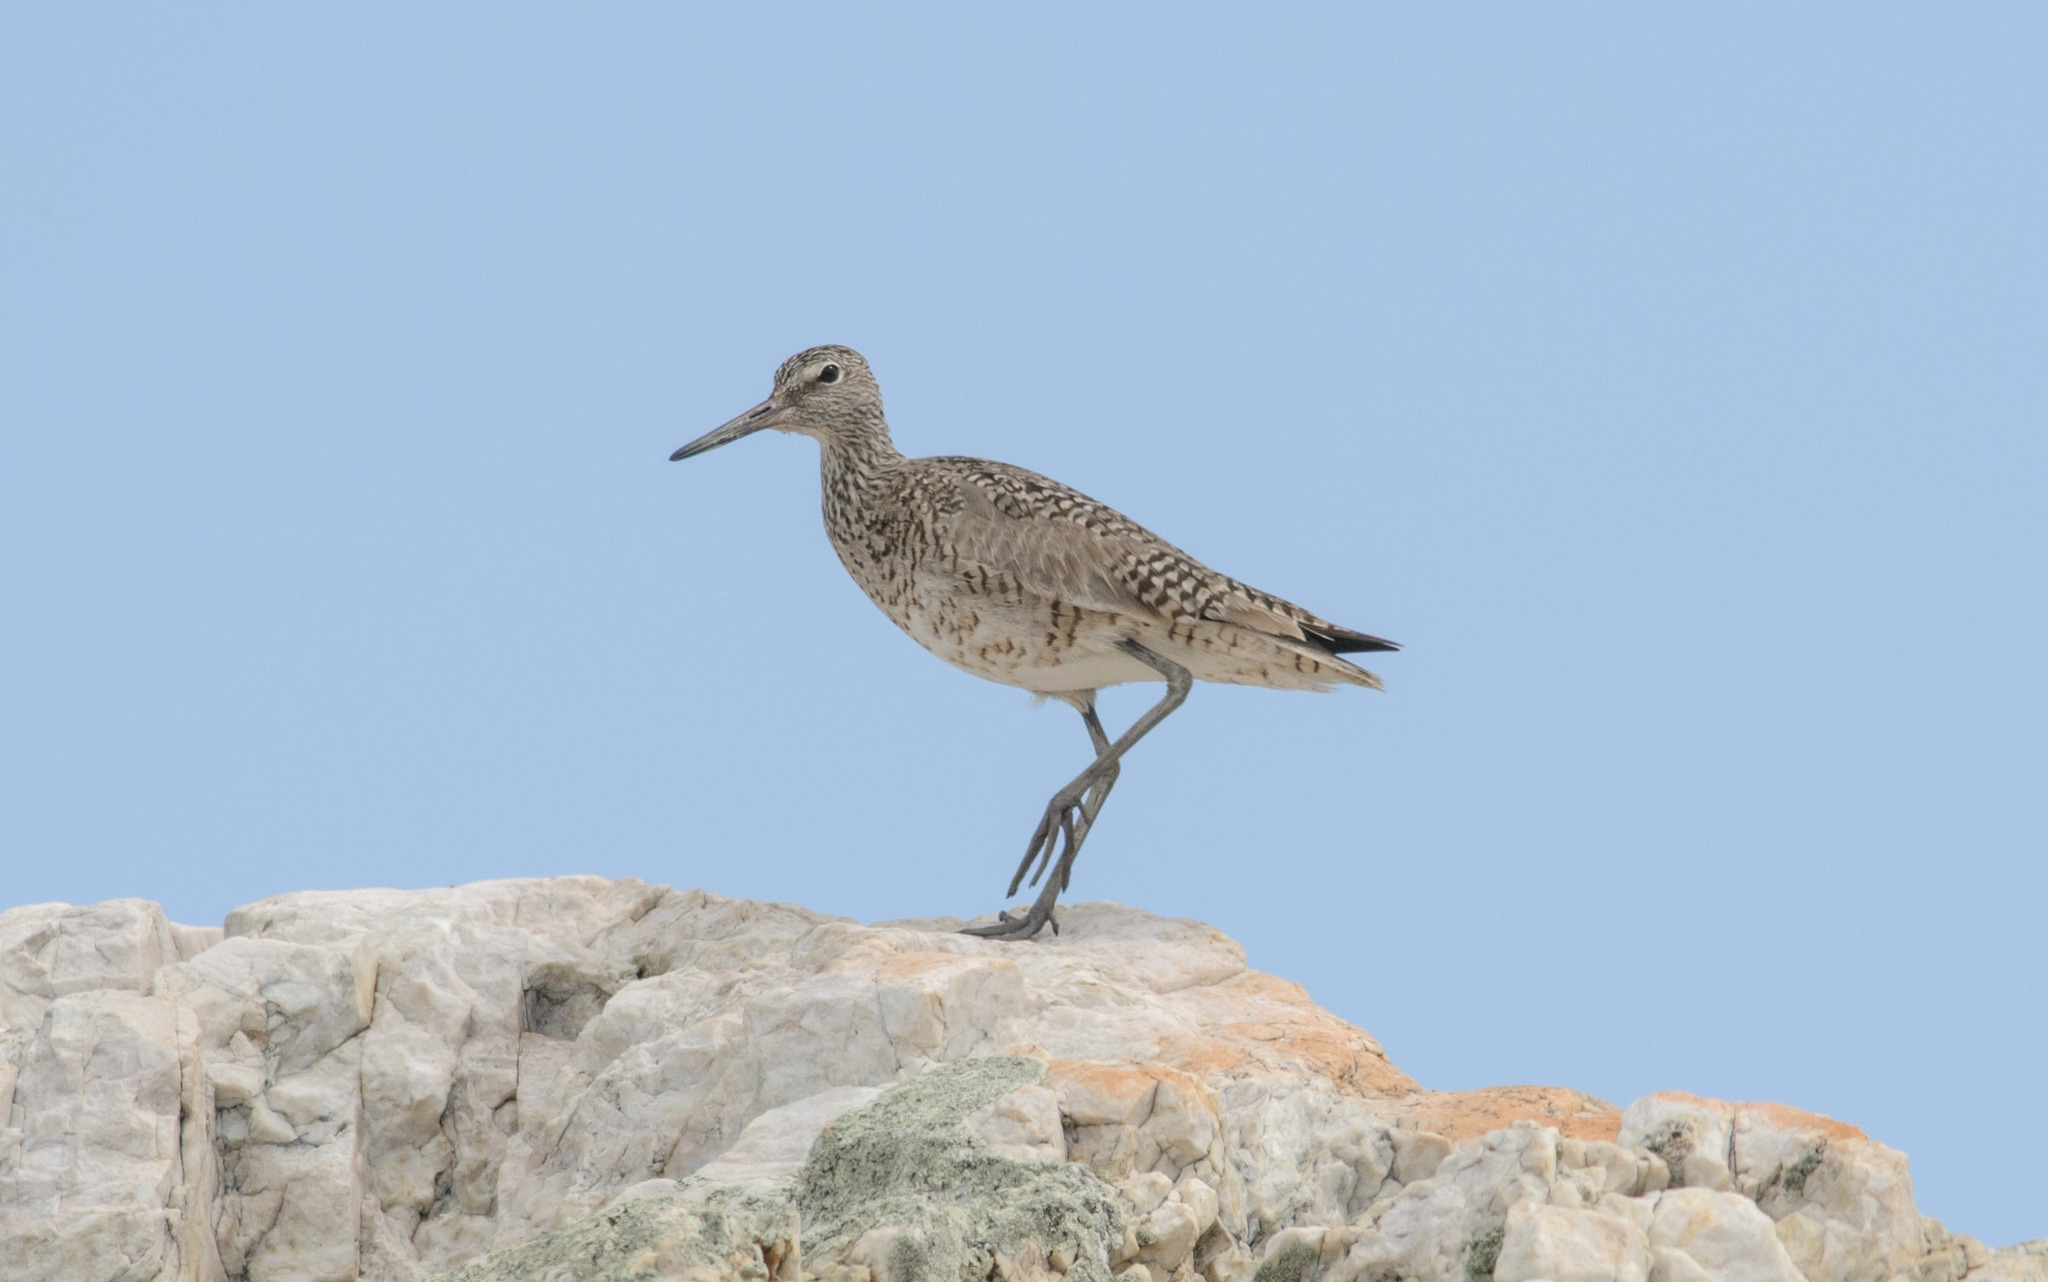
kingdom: Animalia
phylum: Chordata
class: Aves
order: Charadriiformes
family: Scolopacidae
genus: Tringa
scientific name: Tringa semipalmata
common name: Willet
